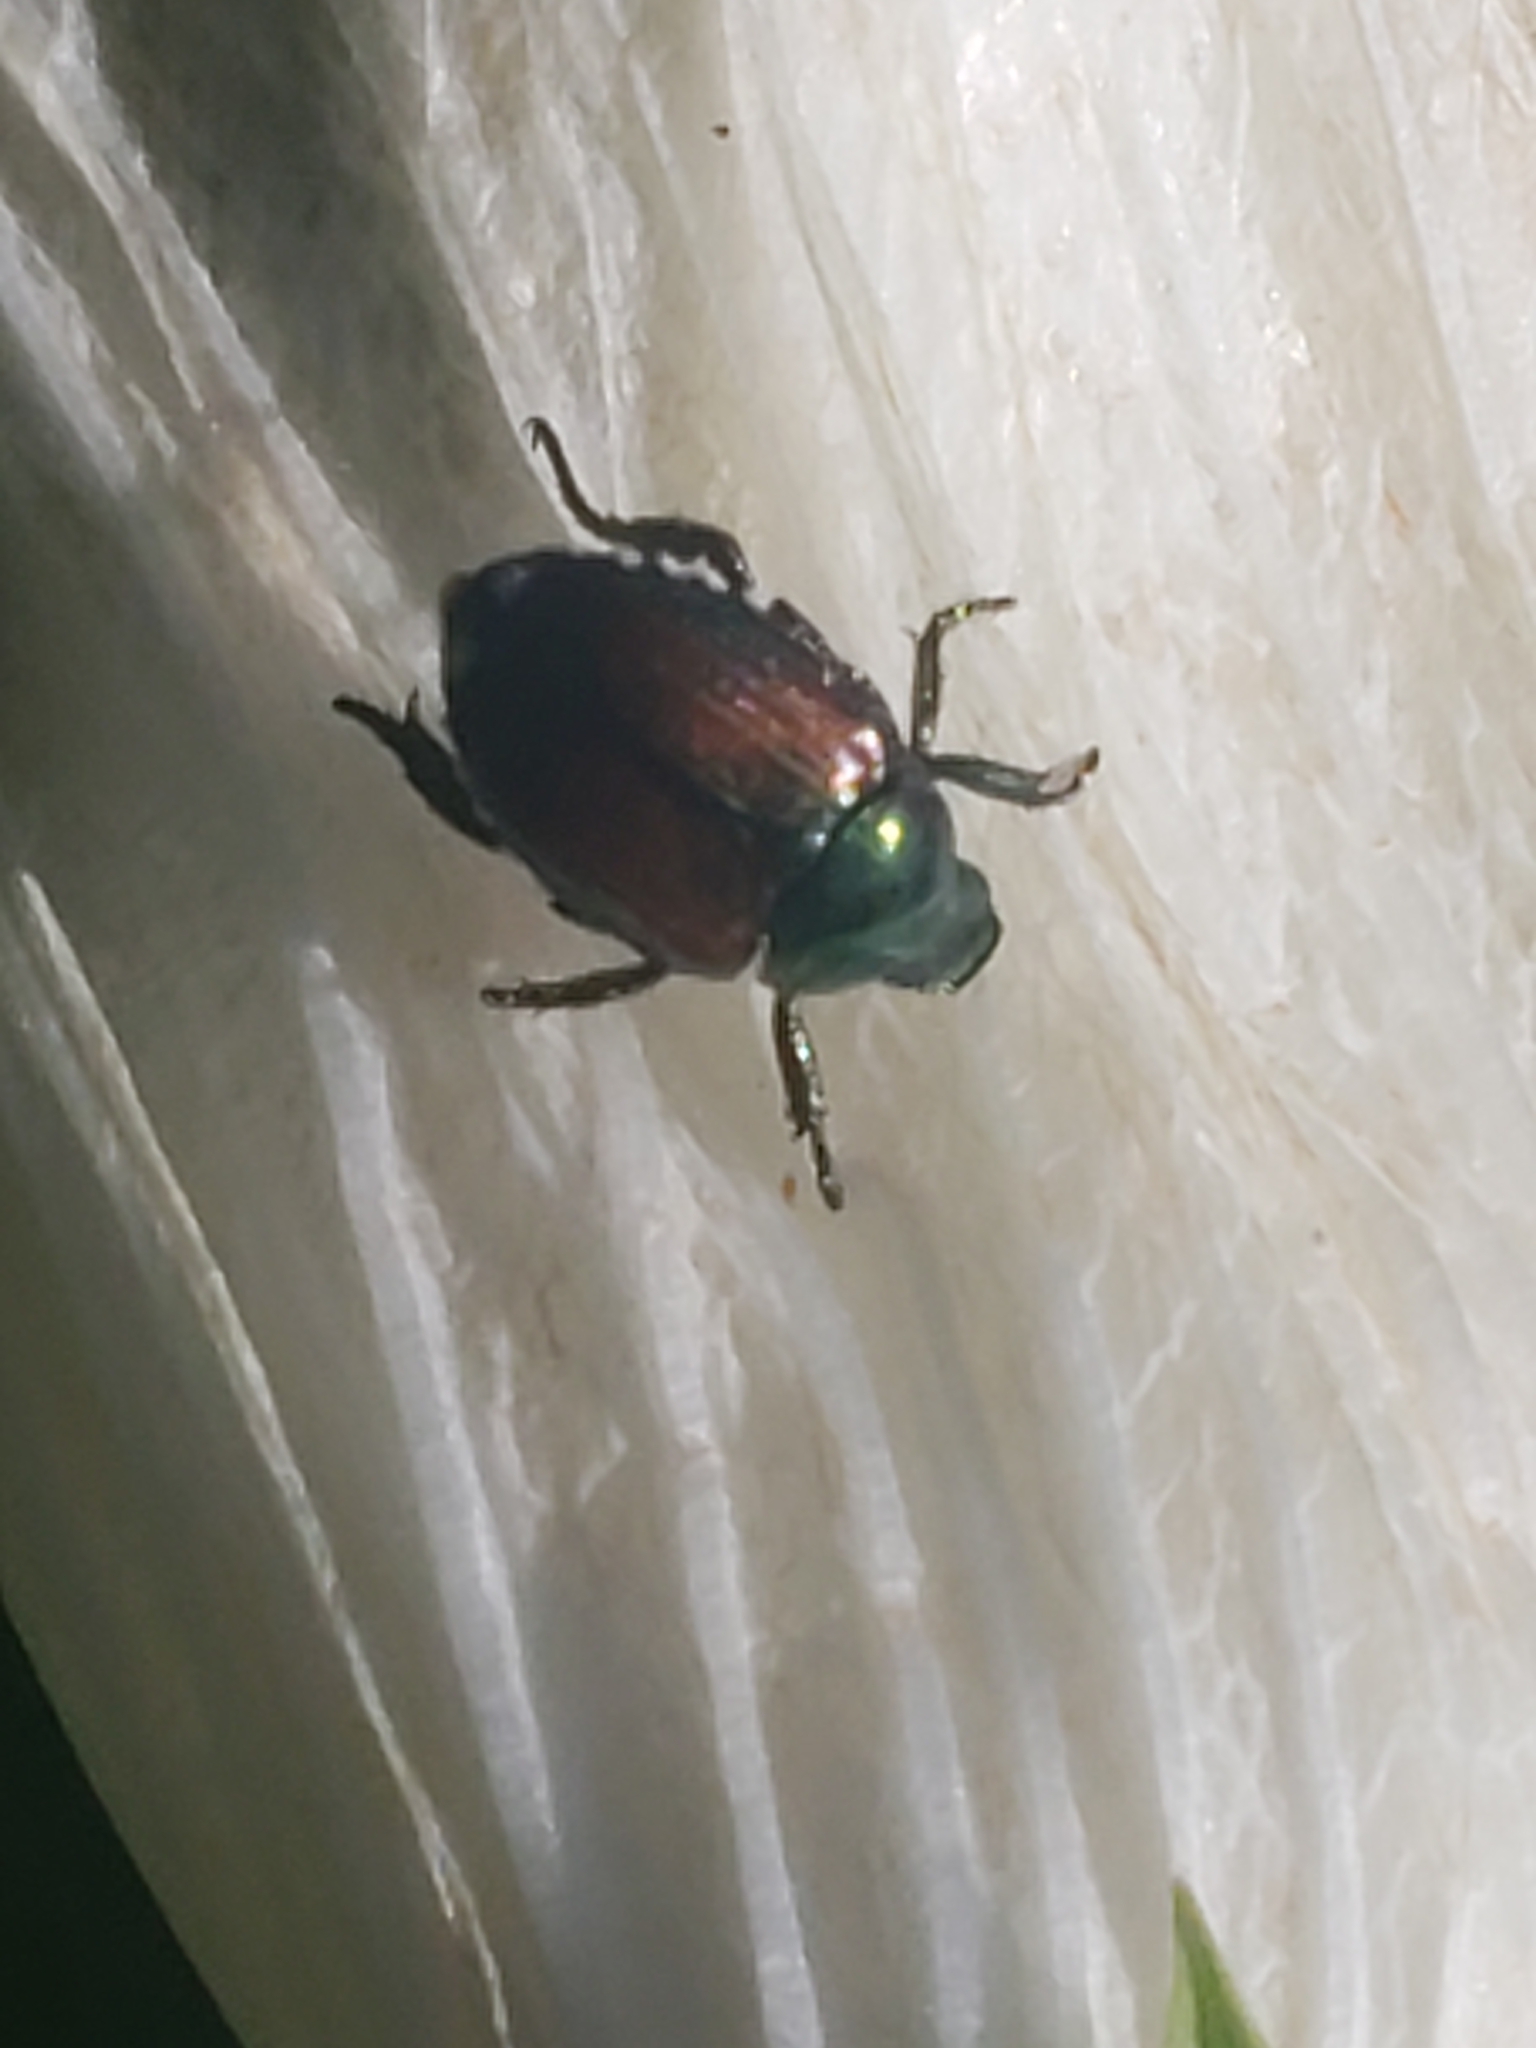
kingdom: Animalia
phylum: Arthropoda
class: Insecta
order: Coleoptera
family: Scarabaeidae
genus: Popillia
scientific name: Popillia japonica
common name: Japanese beetle
